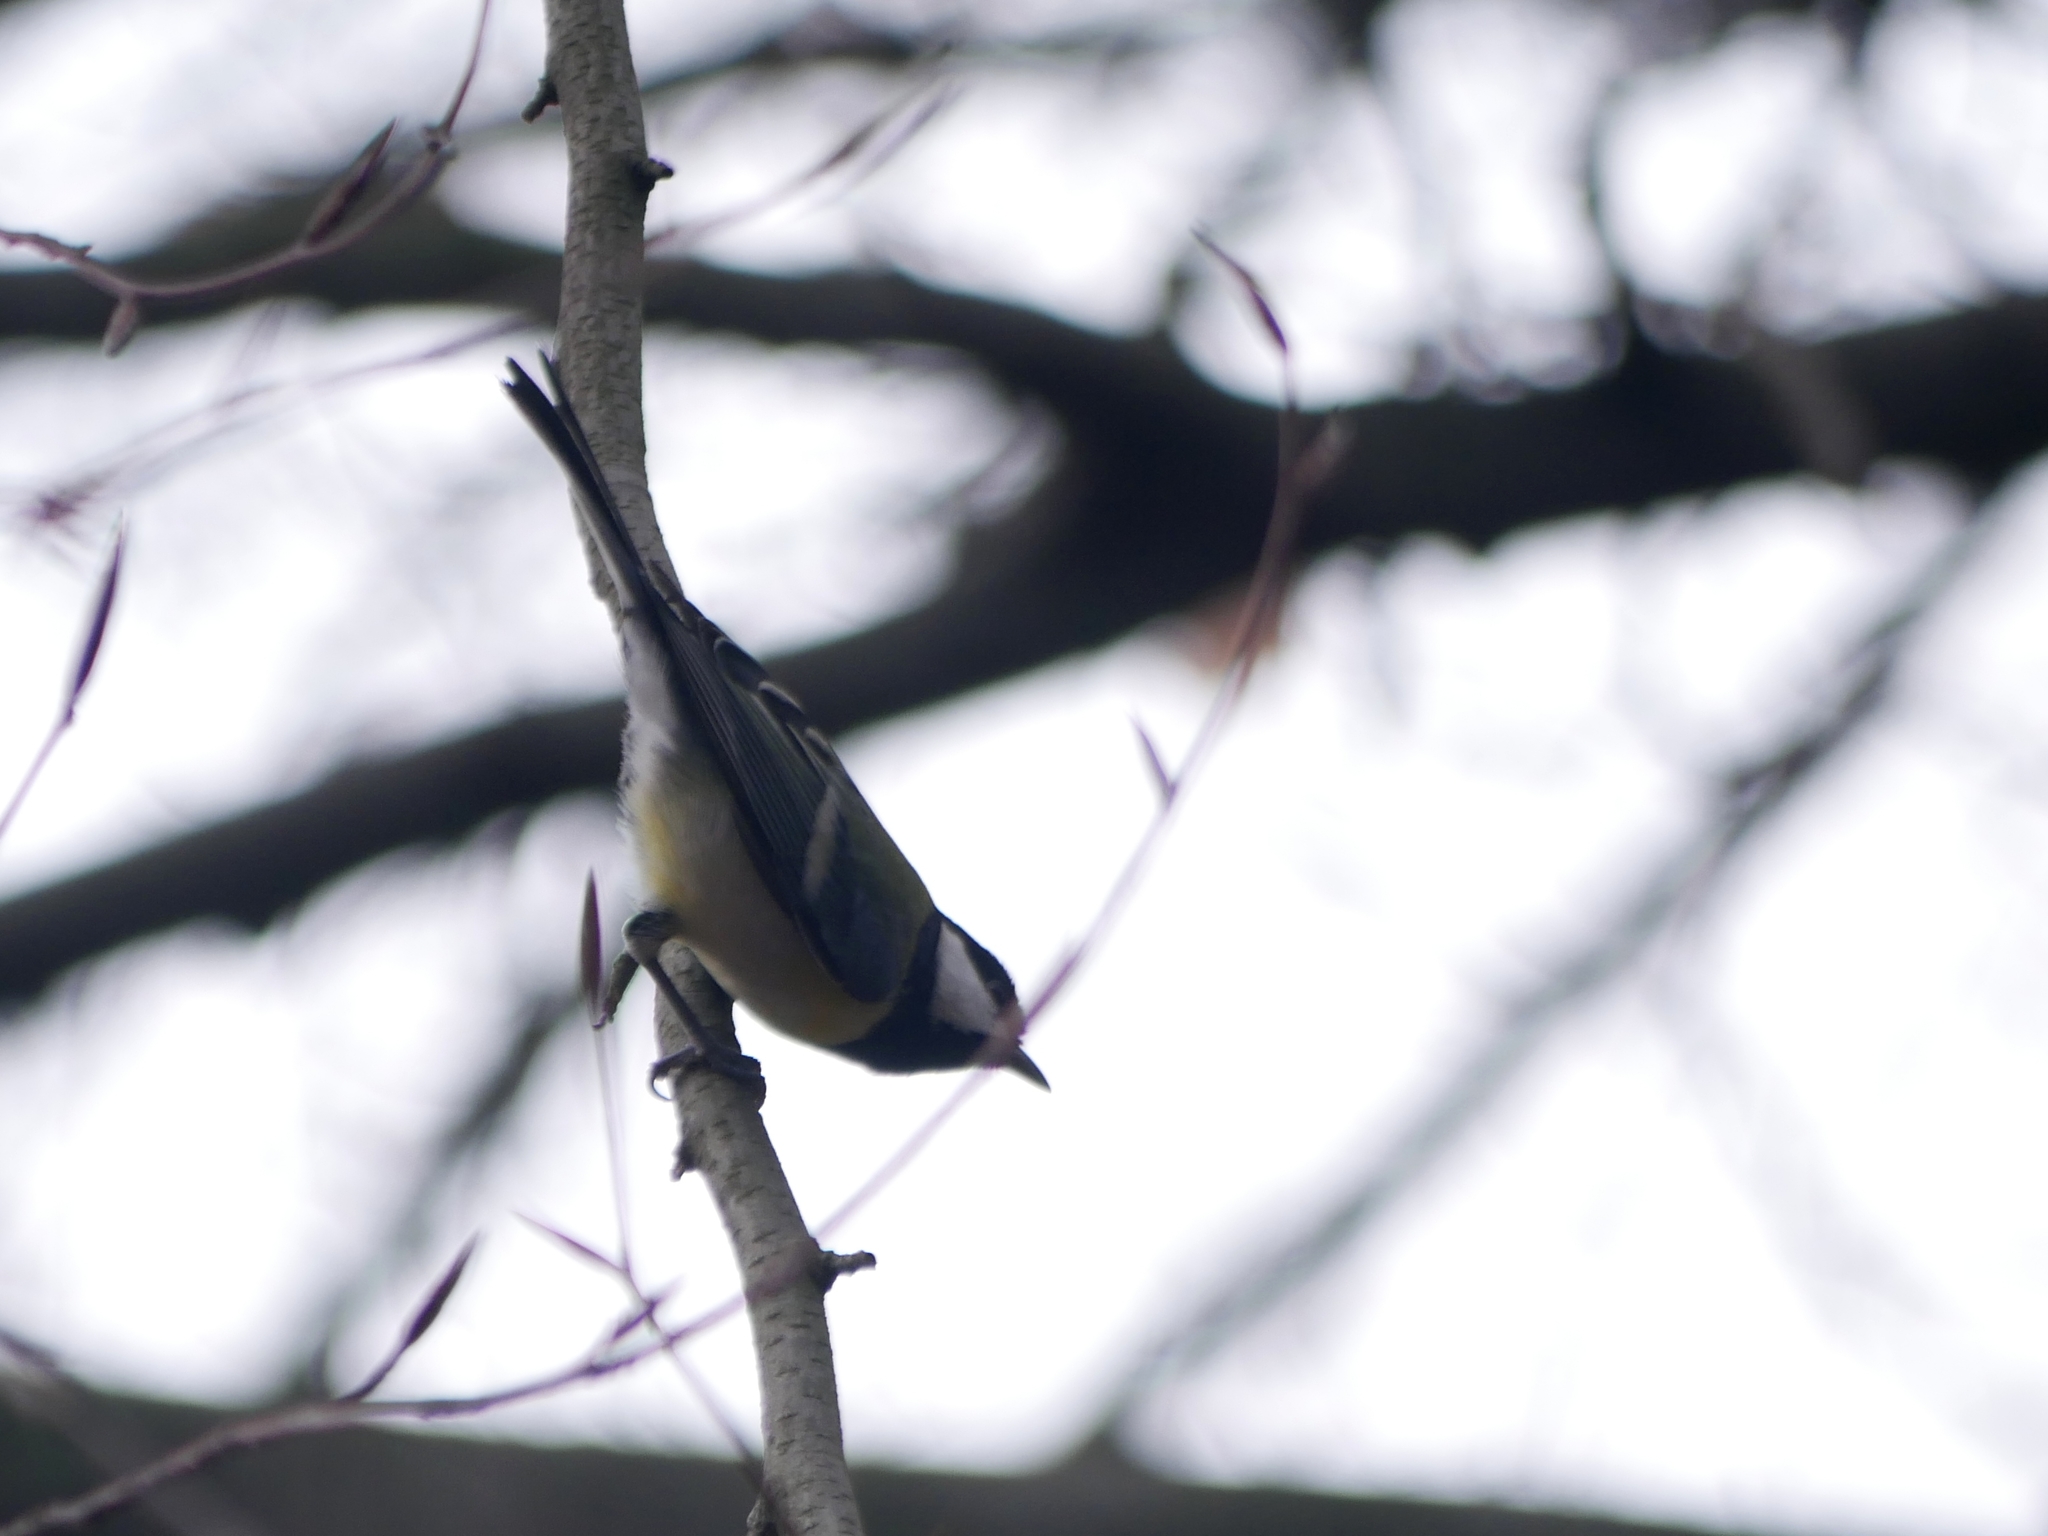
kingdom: Animalia
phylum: Chordata
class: Aves
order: Passeriformes
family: Paridae
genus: Parus
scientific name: Parus major
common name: Great tit
